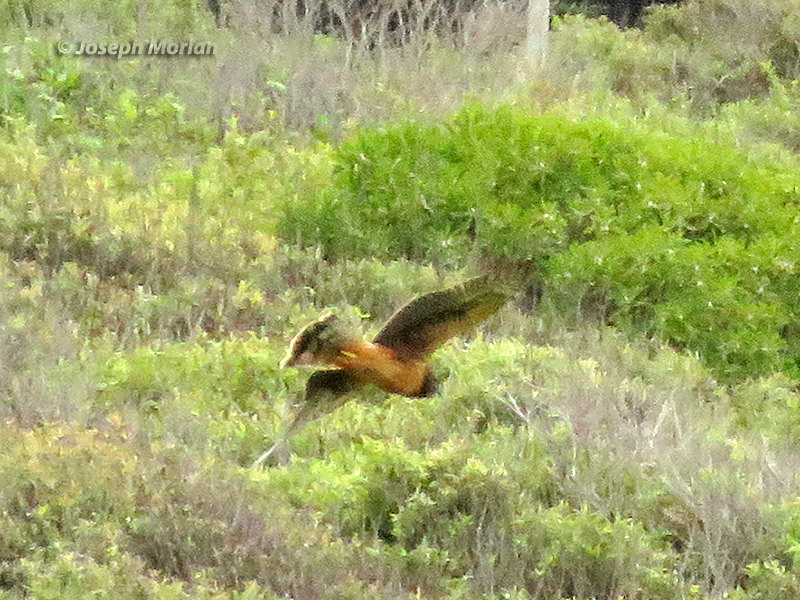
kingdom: Animalia
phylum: Chordata
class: Aves
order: Accipitriformes
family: Accipitridae
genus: Circus
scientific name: Circus cyaneus
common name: Hen harrier
